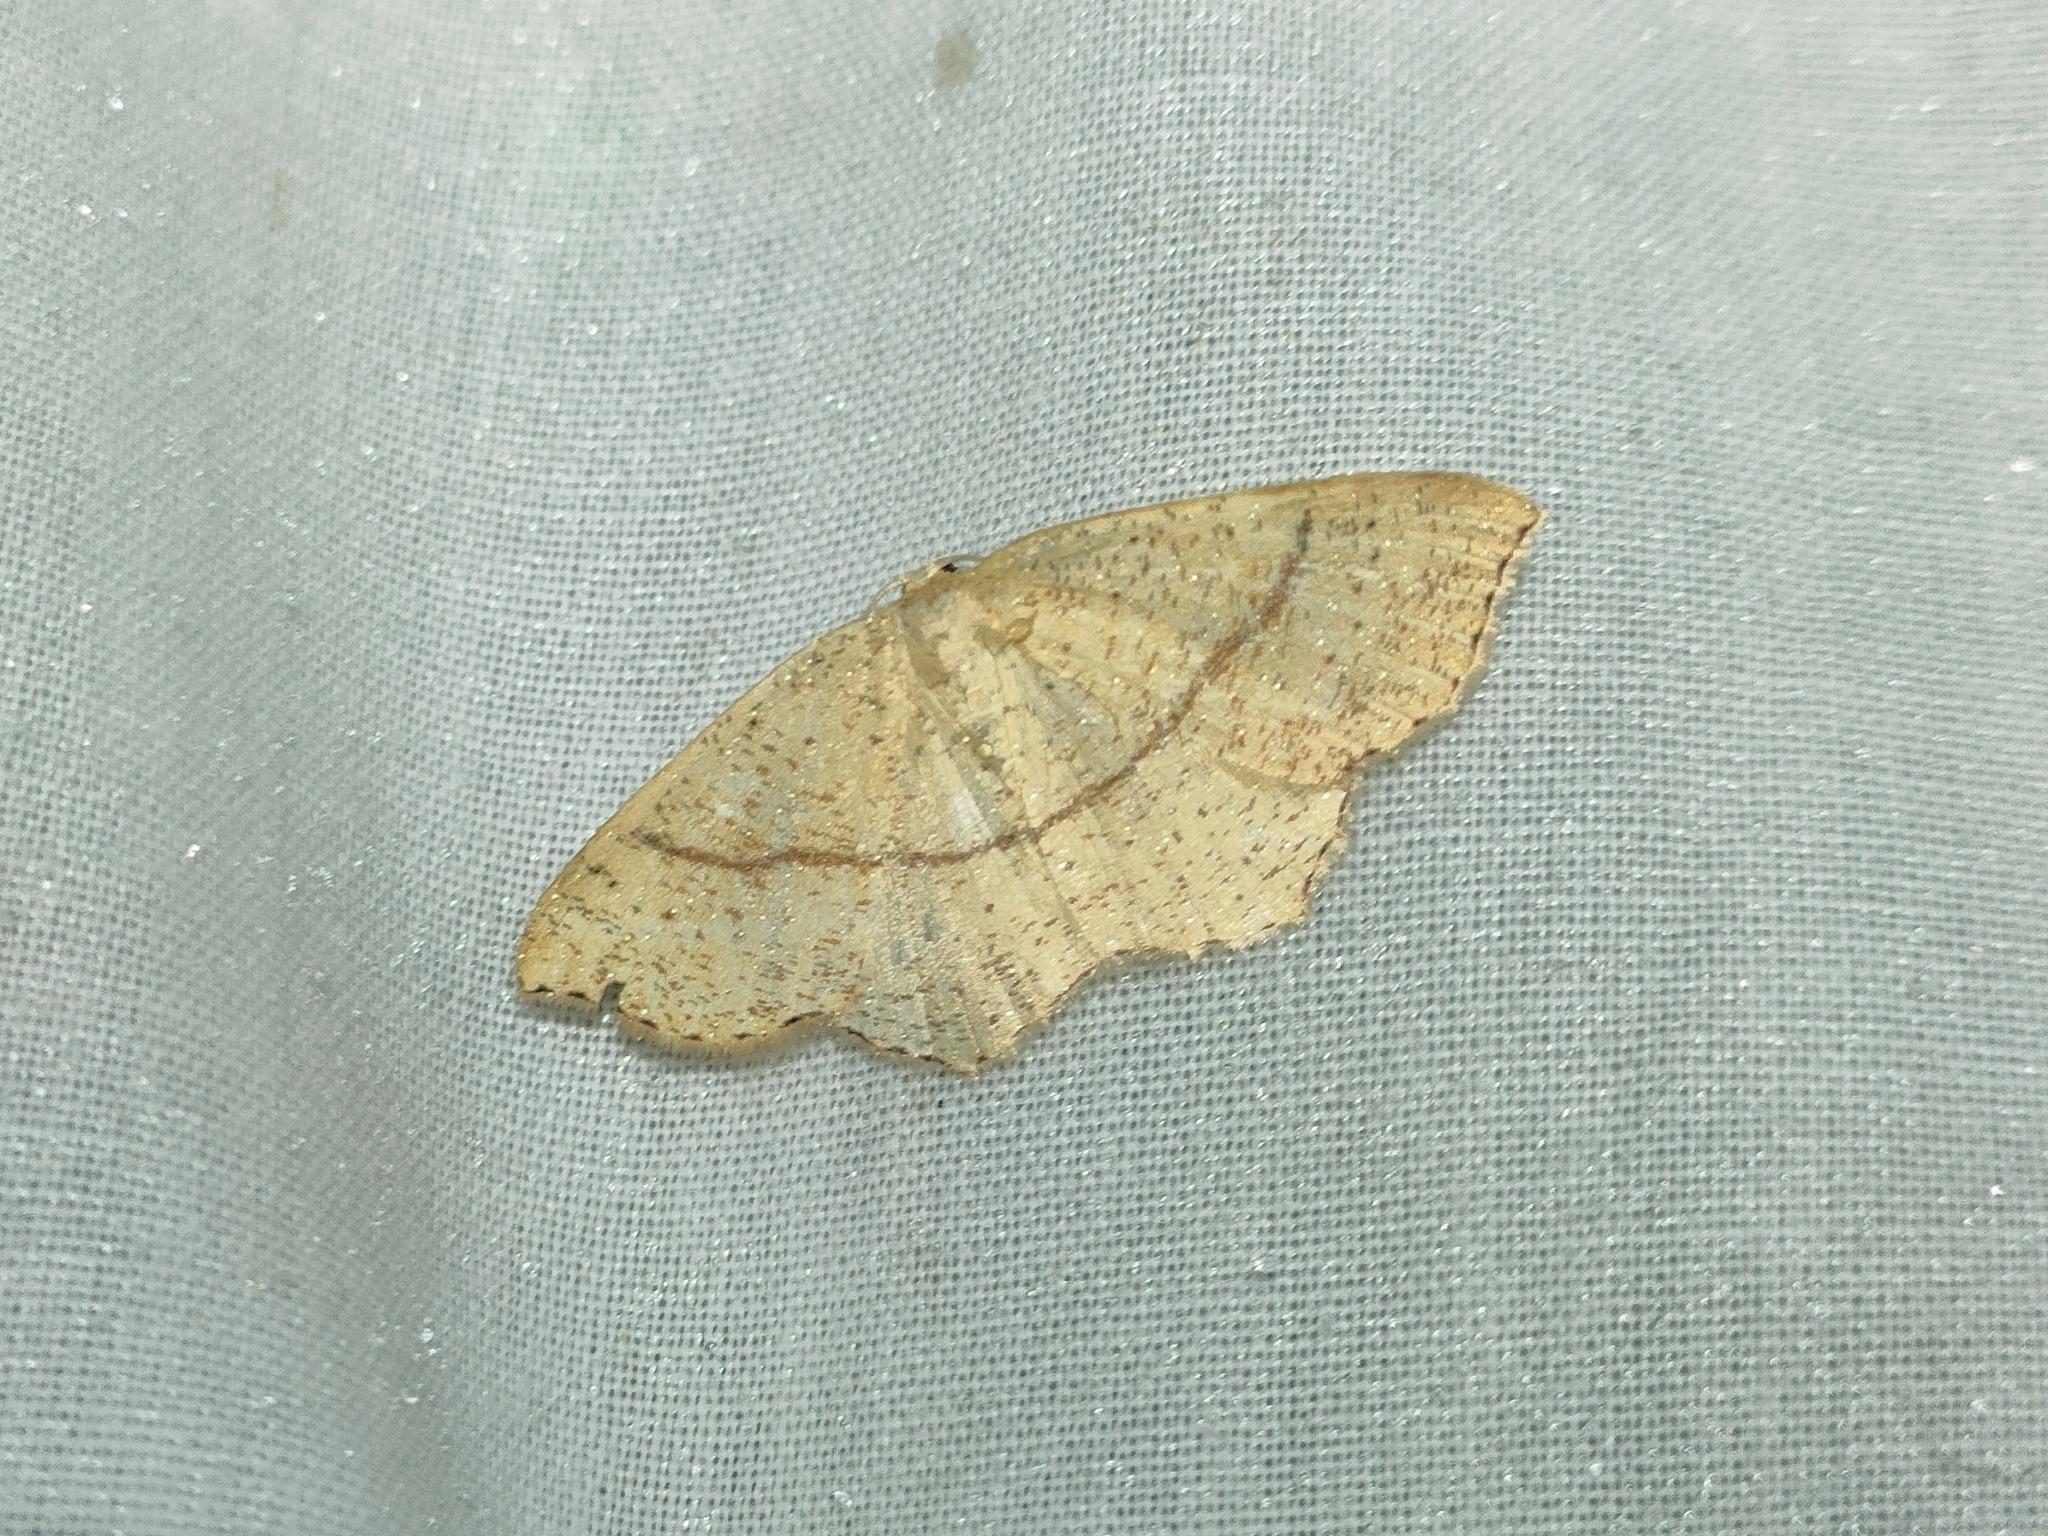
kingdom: Animalia
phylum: Arthropoda
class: Insecta
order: Lepidoptera
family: Geometridae
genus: Cyclophora
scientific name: Cyclophora punctaria
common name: Maiden's blush
